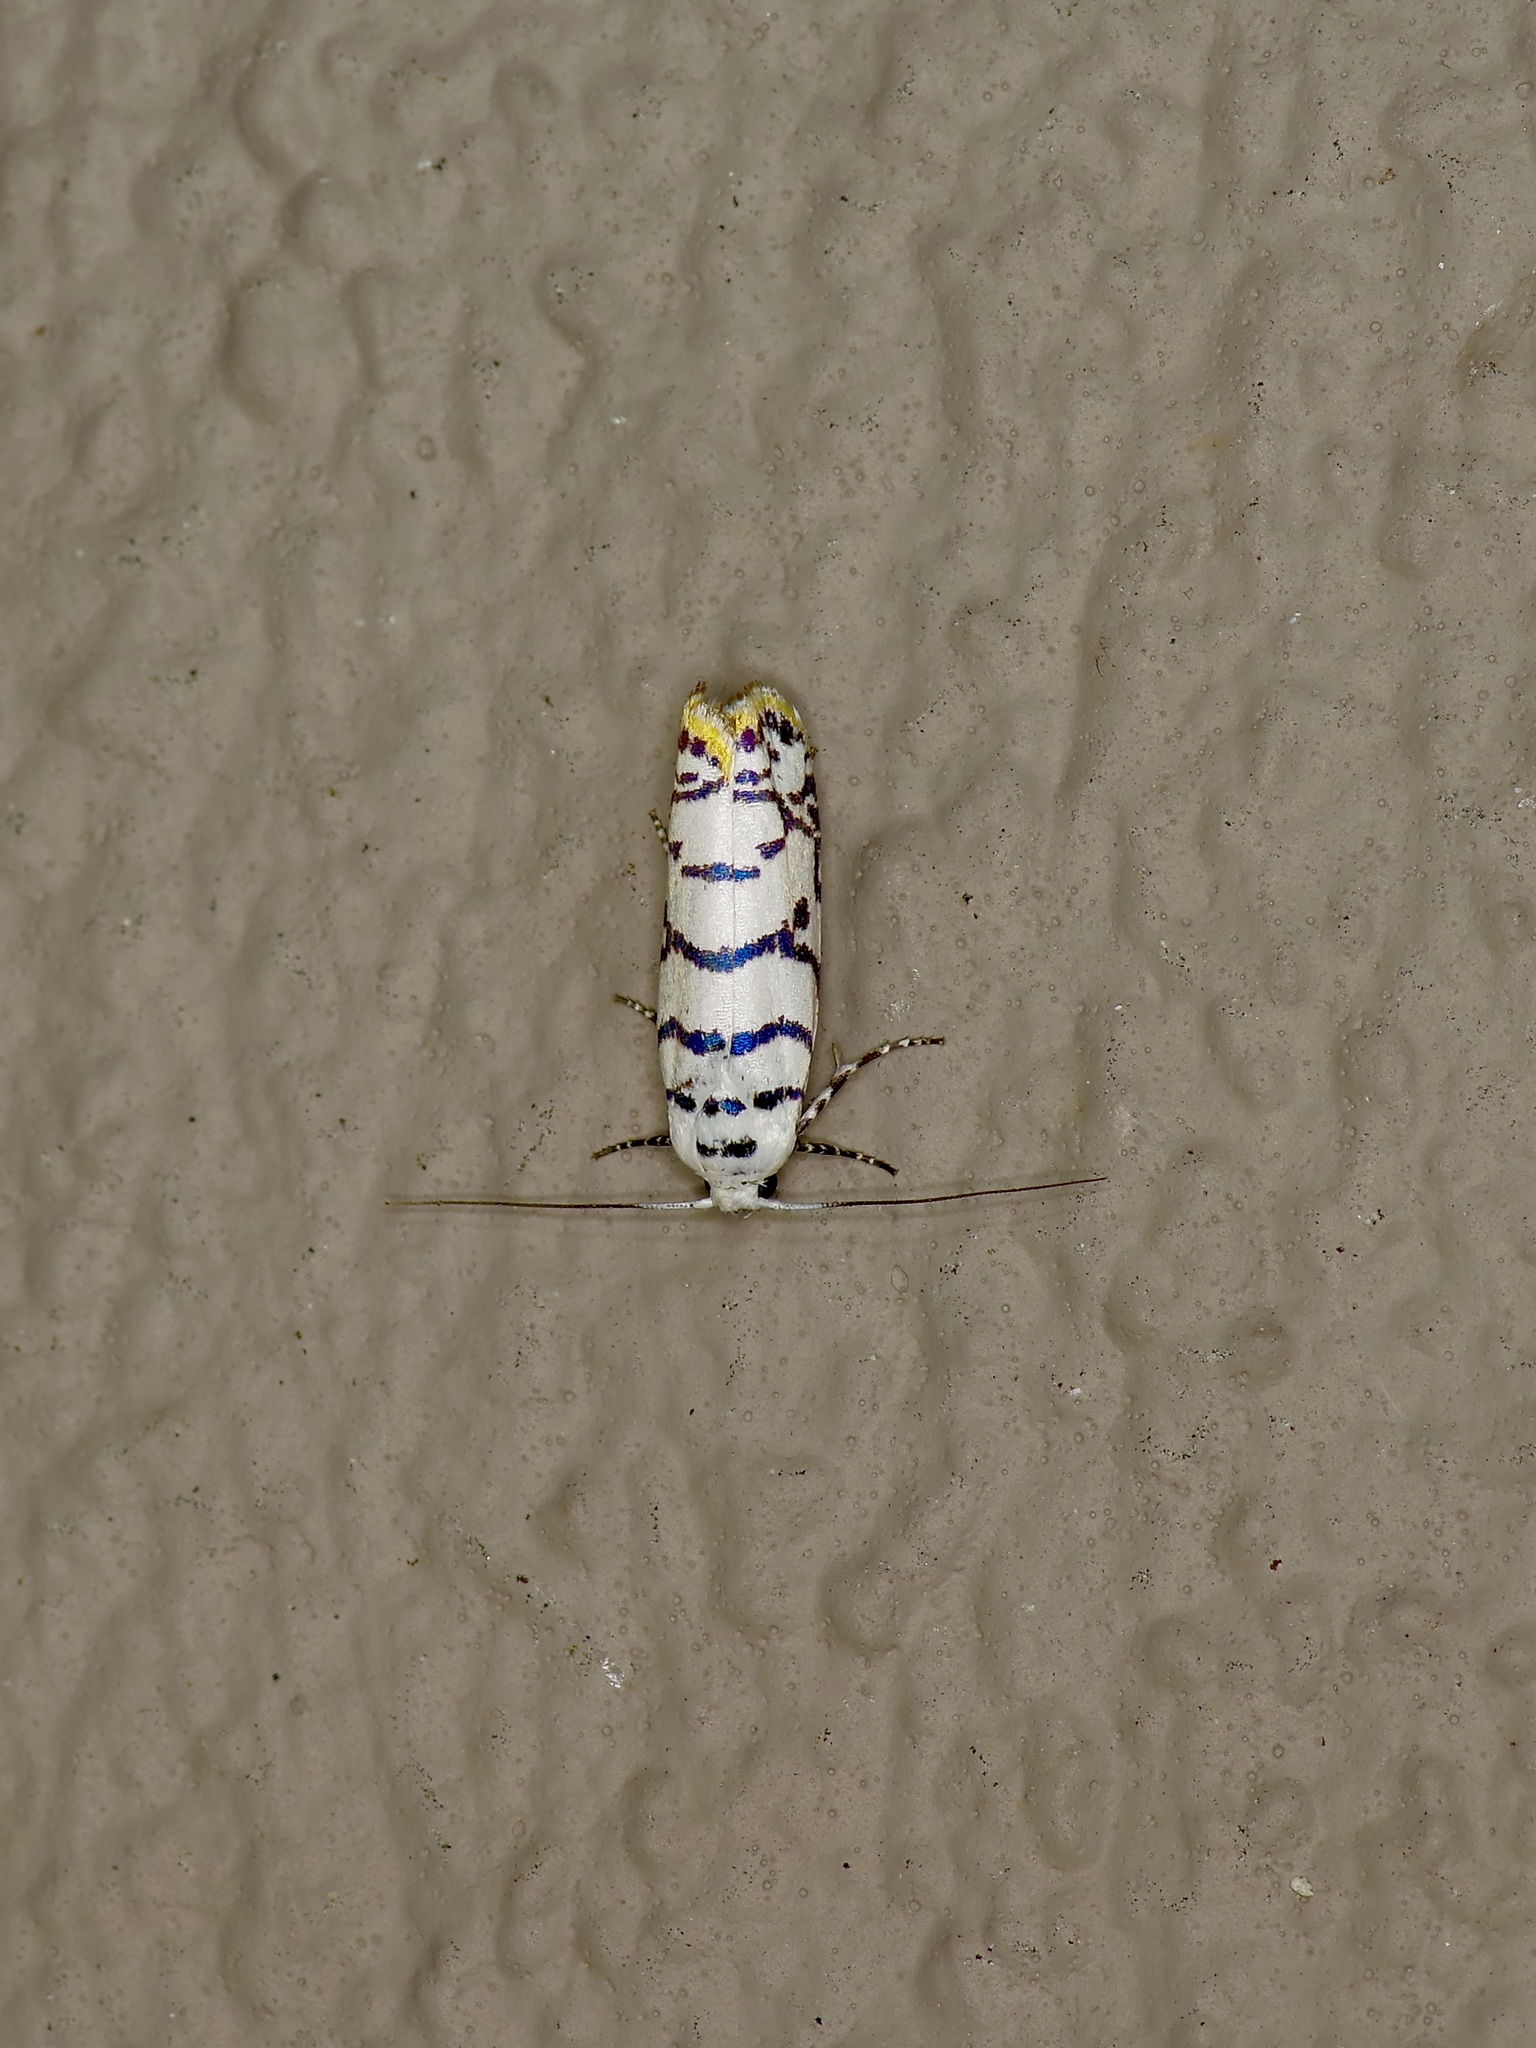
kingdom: Animalia
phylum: Arthropoda
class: Insecta
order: Lepidoptera
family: Ethmiidae
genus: Ethmia
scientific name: Ethmia delliella
